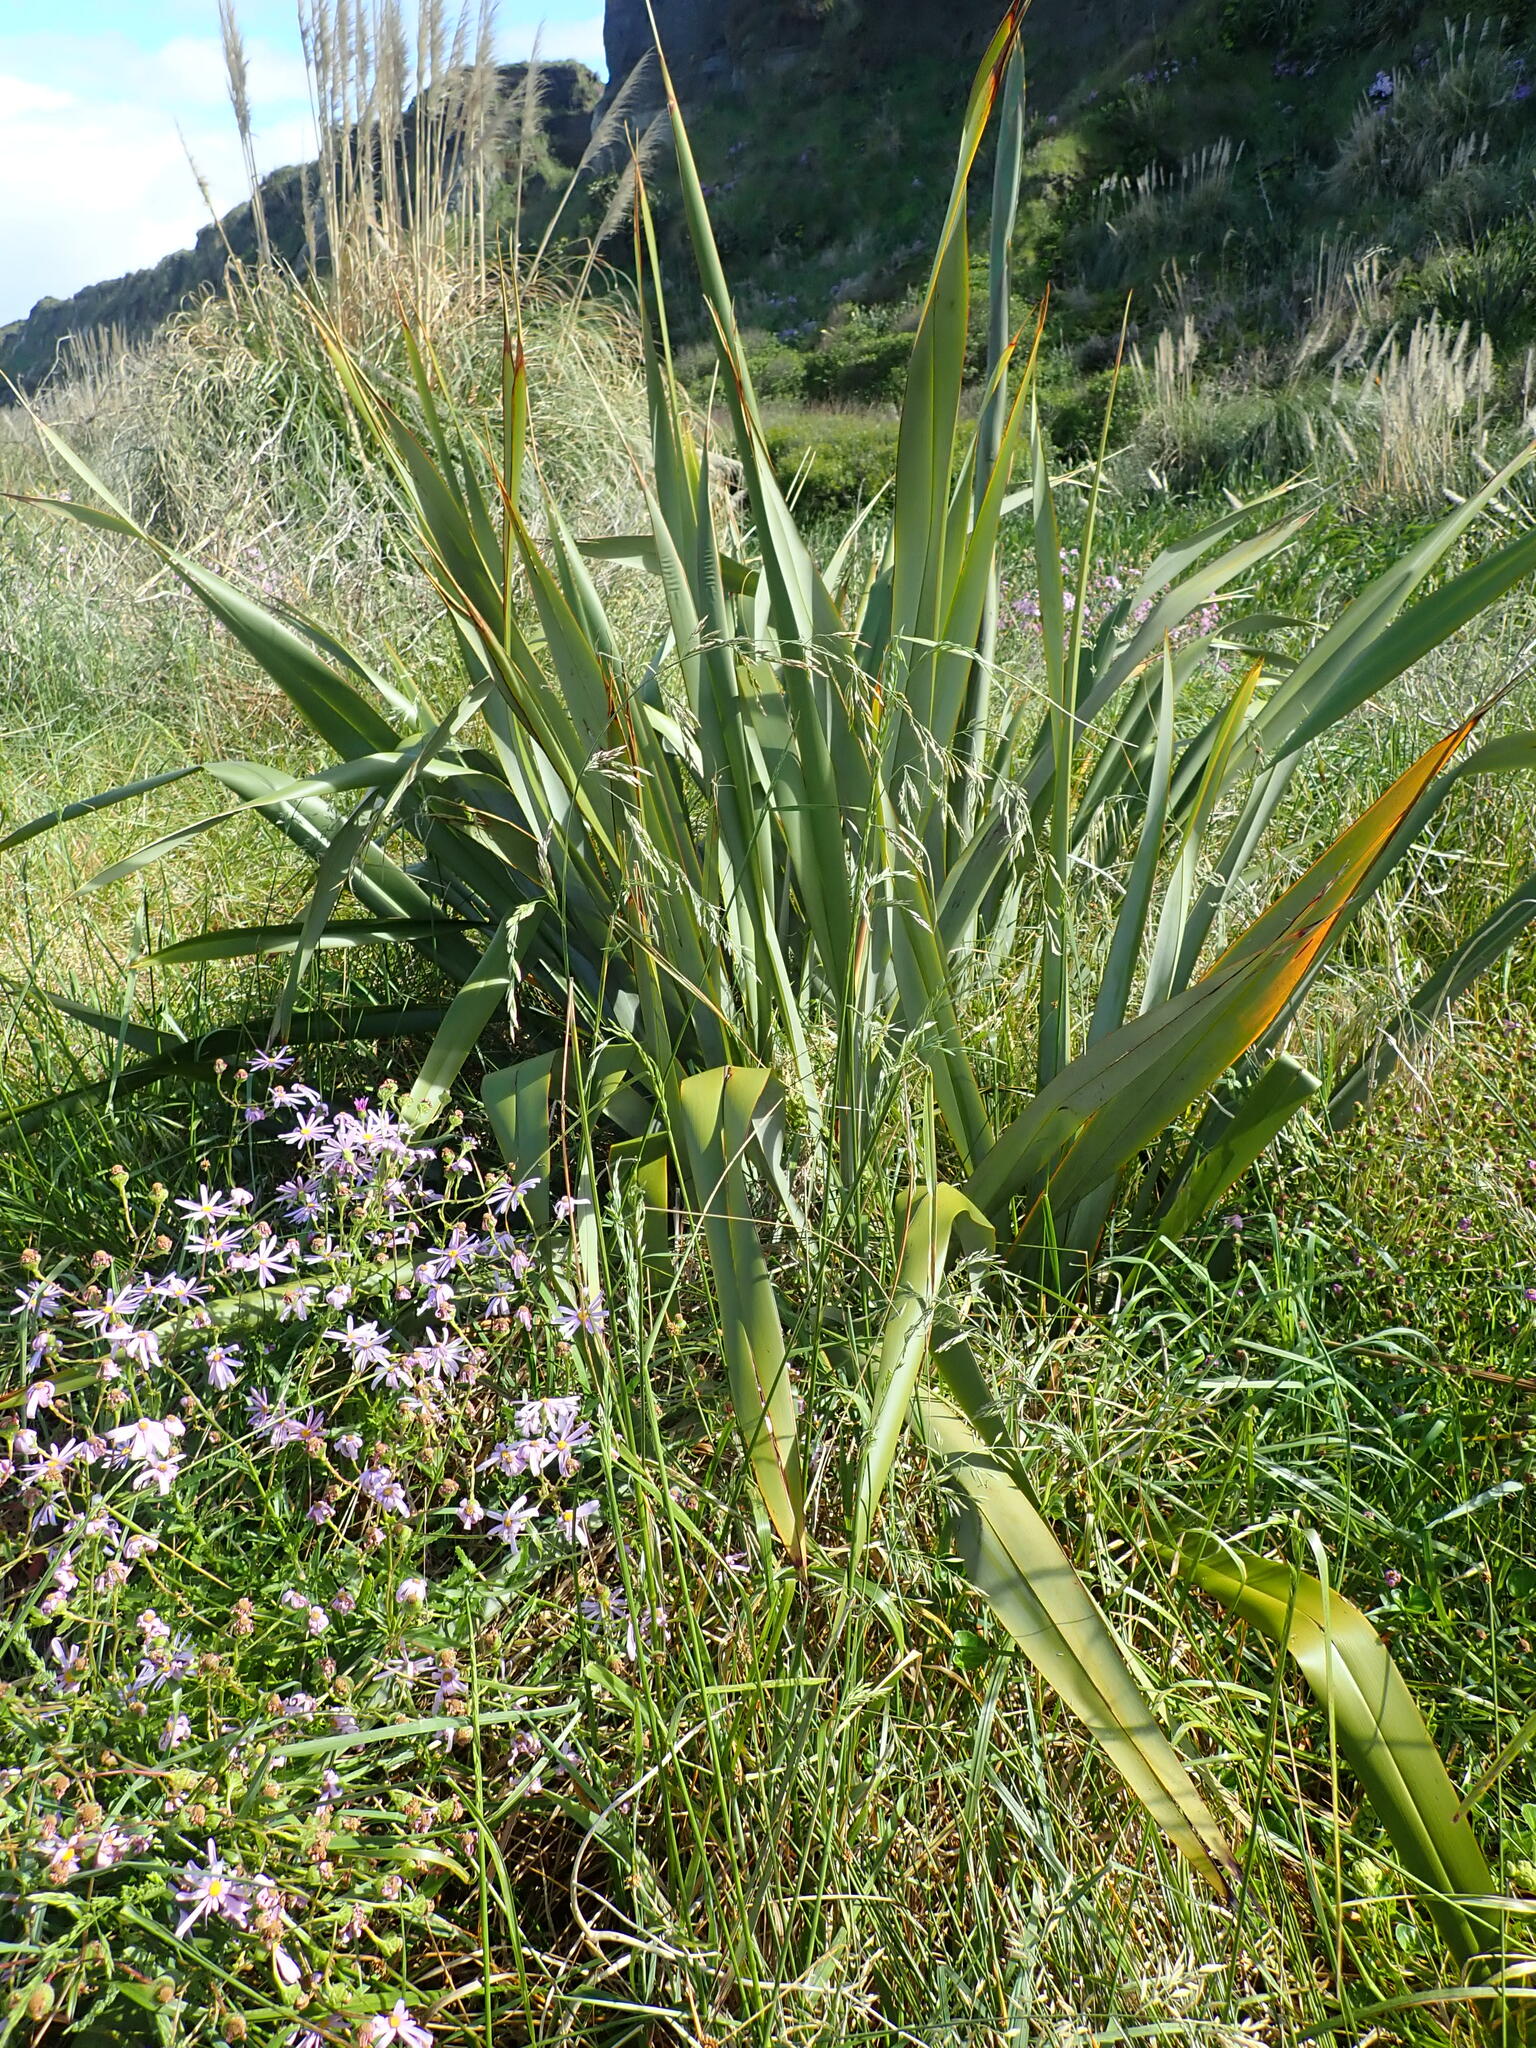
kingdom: Plantae
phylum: Tracheophyta
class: Liliopsida
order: Asparagales
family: Asphodelaceae
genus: Phormium
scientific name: Phormium tenax
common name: New zealand flax
